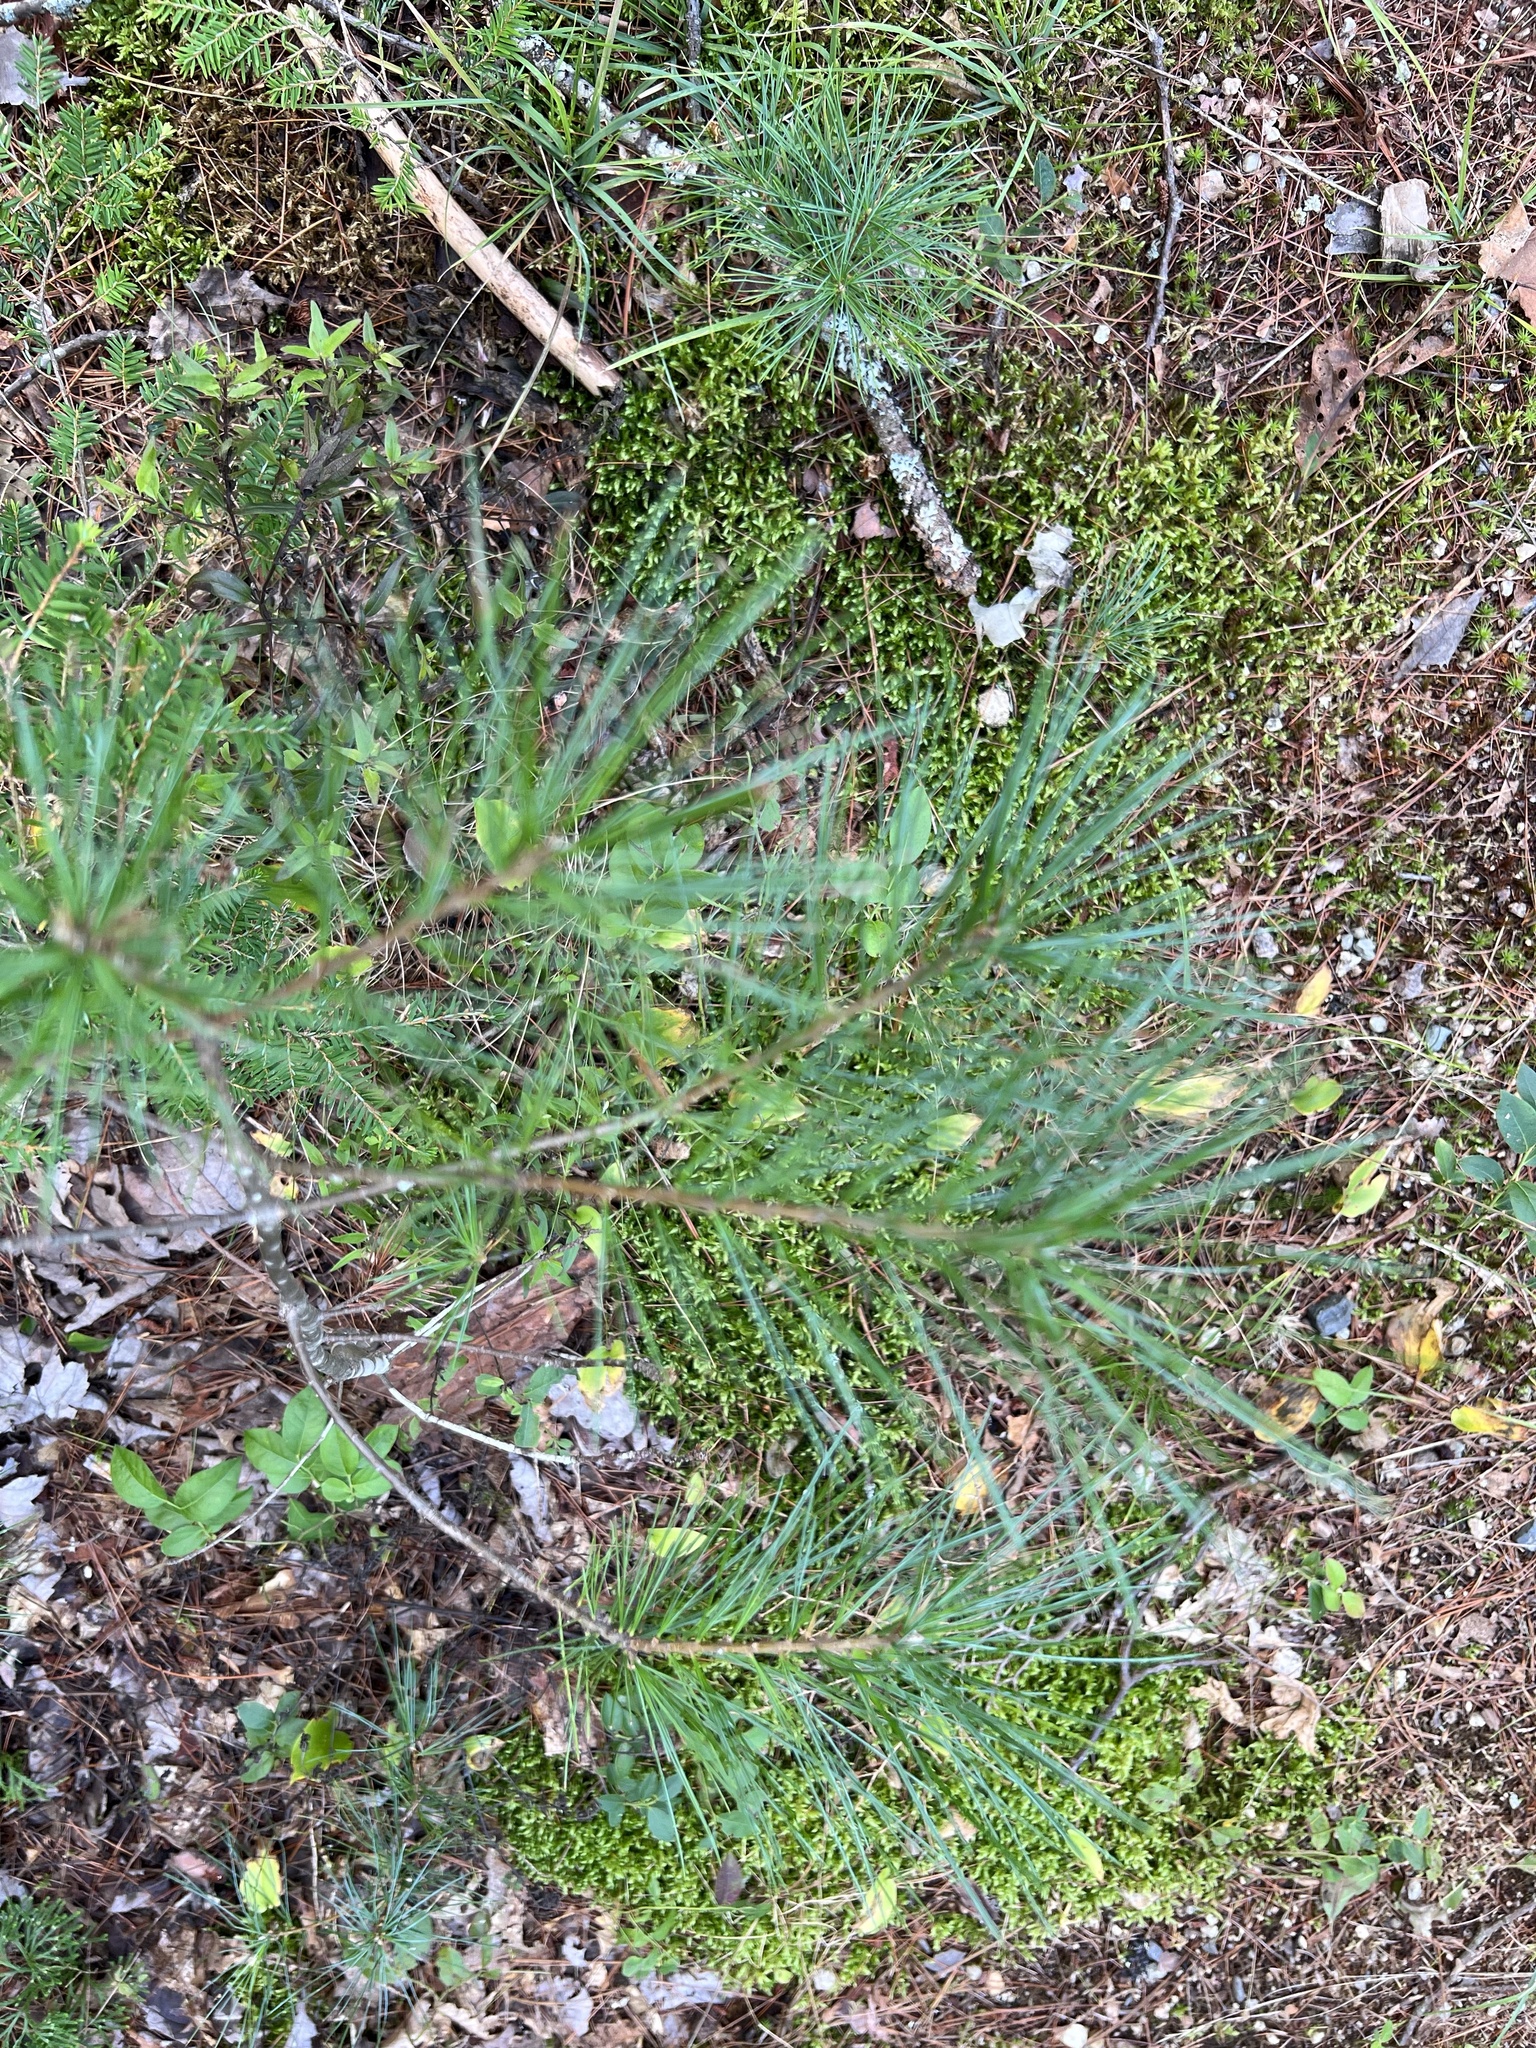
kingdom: Plantae
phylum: Tracheophyta
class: Pinopsida
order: Pinales
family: Pinaceae
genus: Pinus
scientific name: Pinus strobus
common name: Weymouth pine
